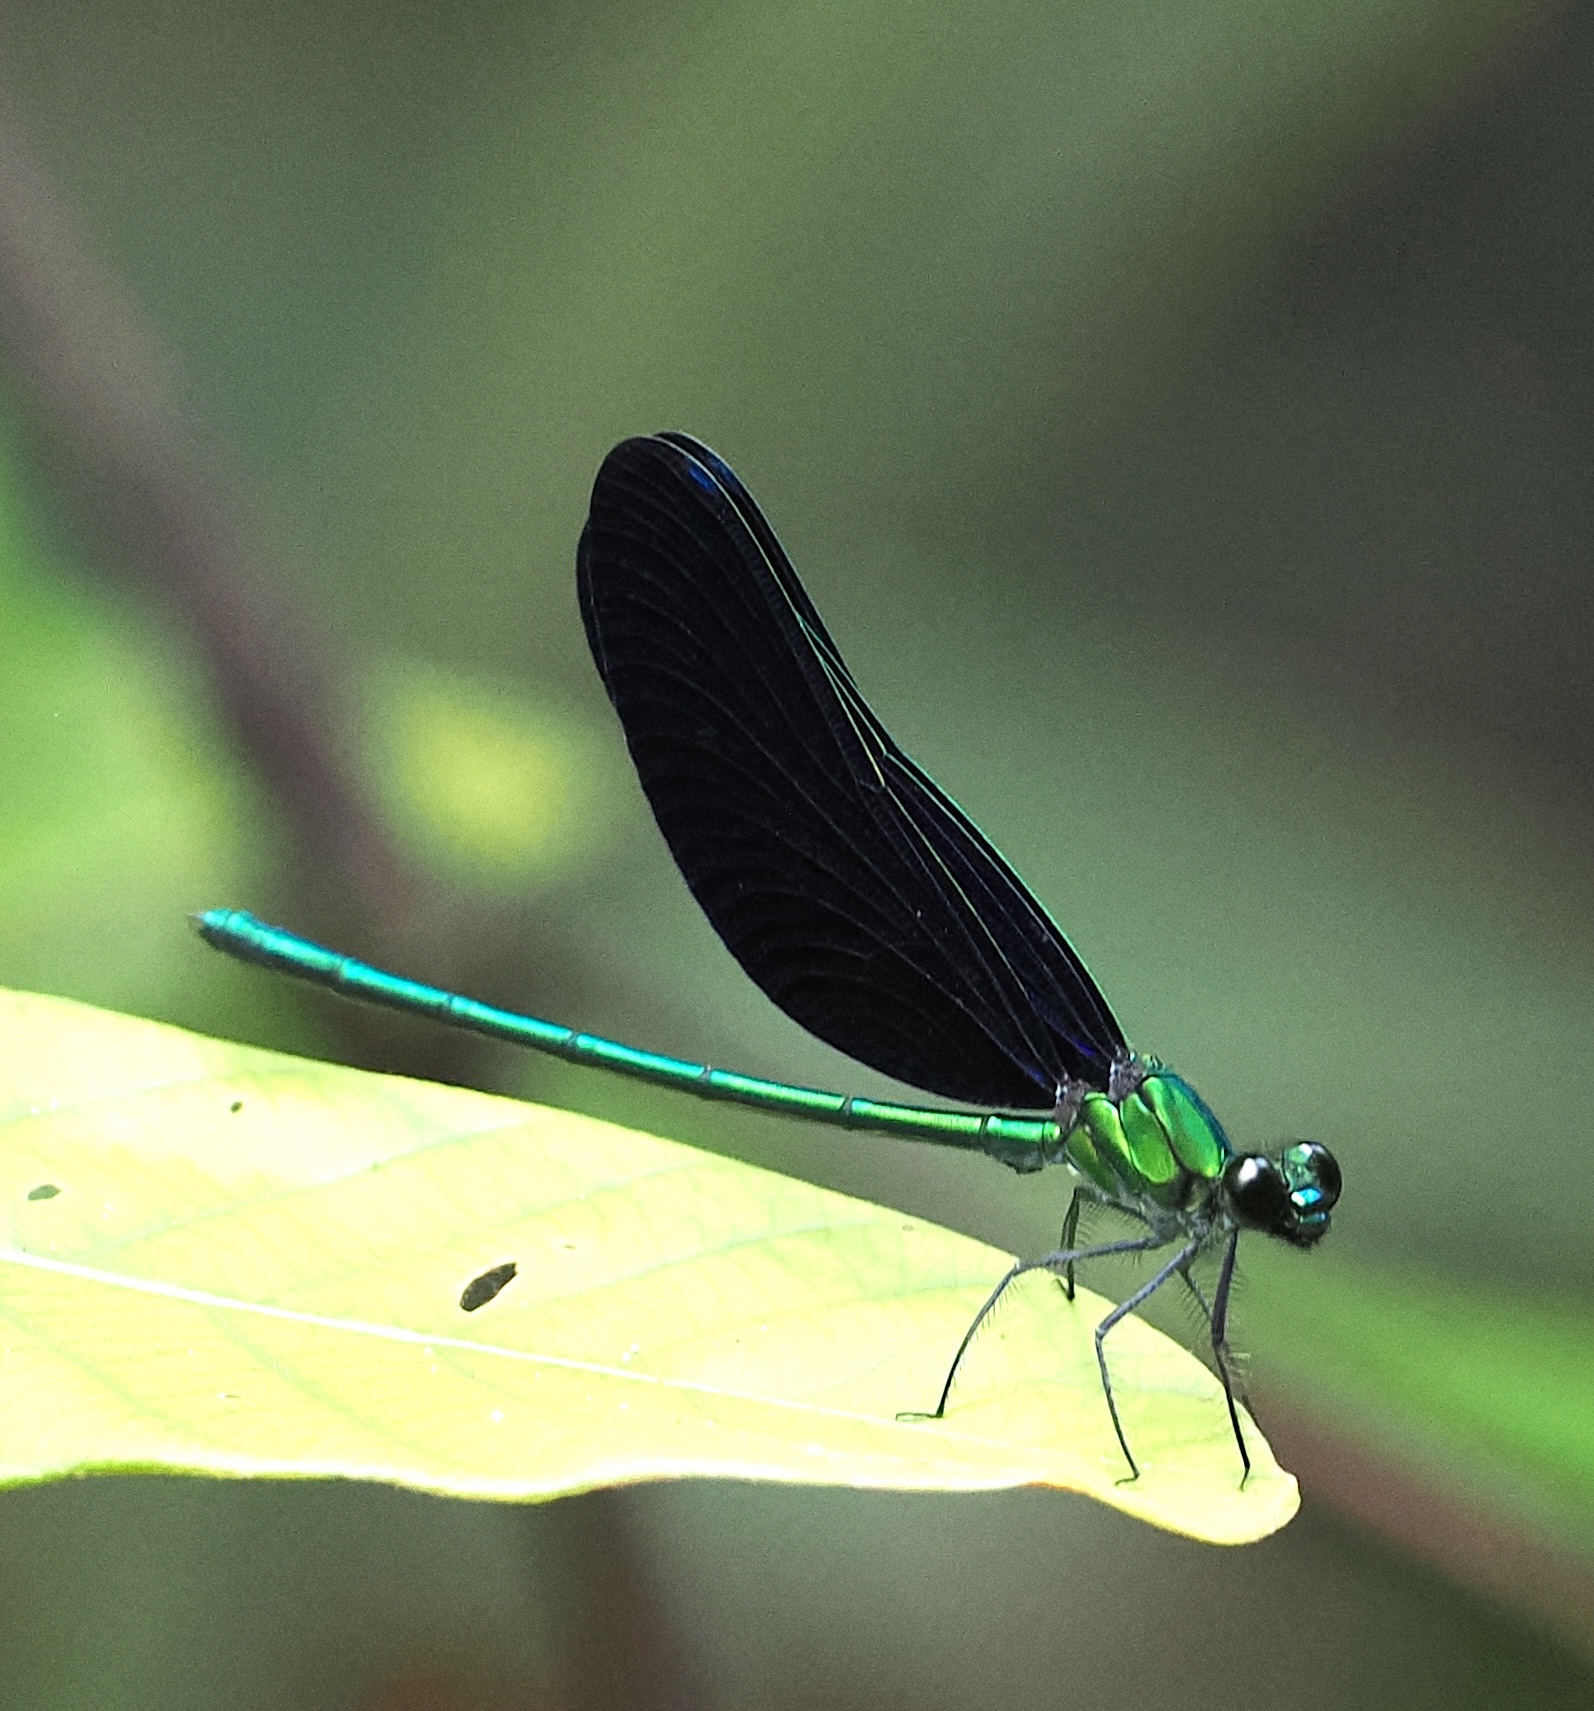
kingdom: Animalia
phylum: Arthropoda
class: Insecta
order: Odonata
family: Calopterygidae
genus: Sapho
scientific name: Sapho ciliata
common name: Western bluewing
